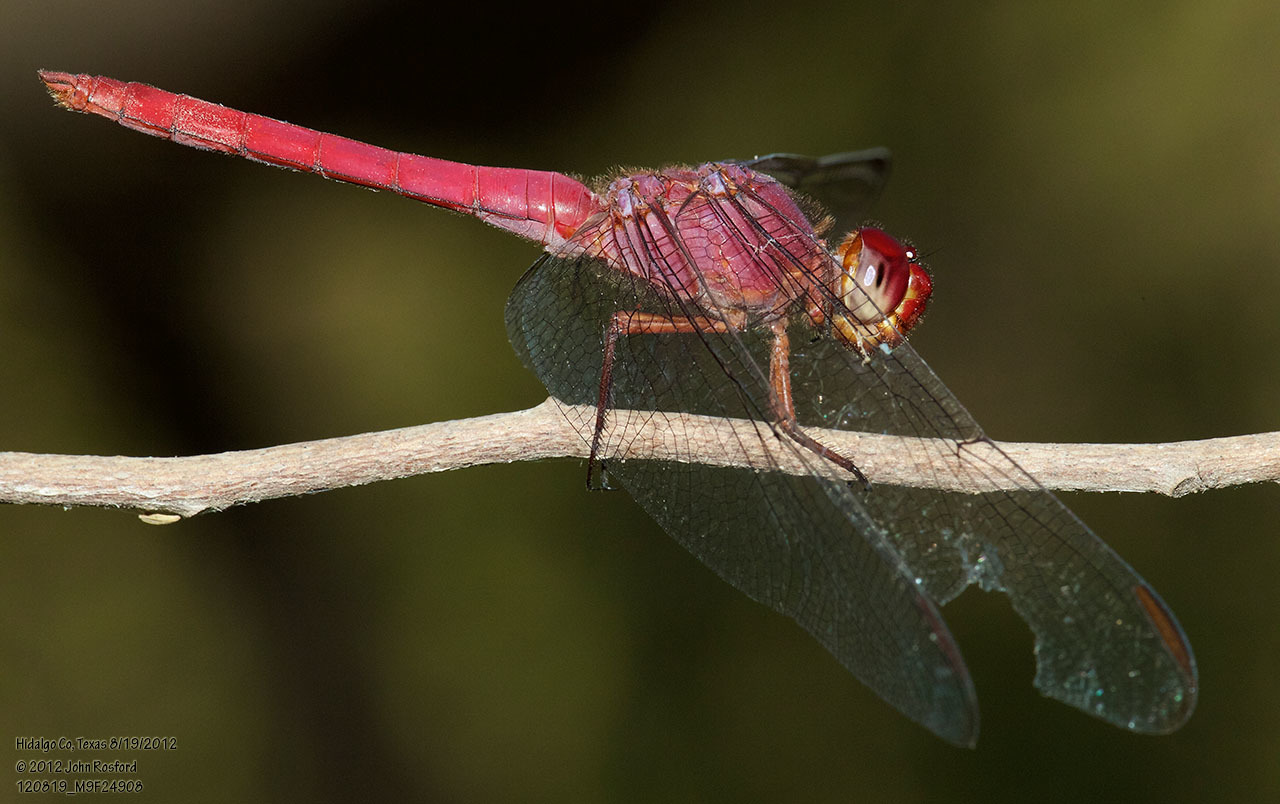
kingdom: Animalia
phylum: Arthropoda
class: Insecta
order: Odonata
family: Libellulidae
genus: Orthemis
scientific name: Orthemis discolor
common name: Carmine skimmer
